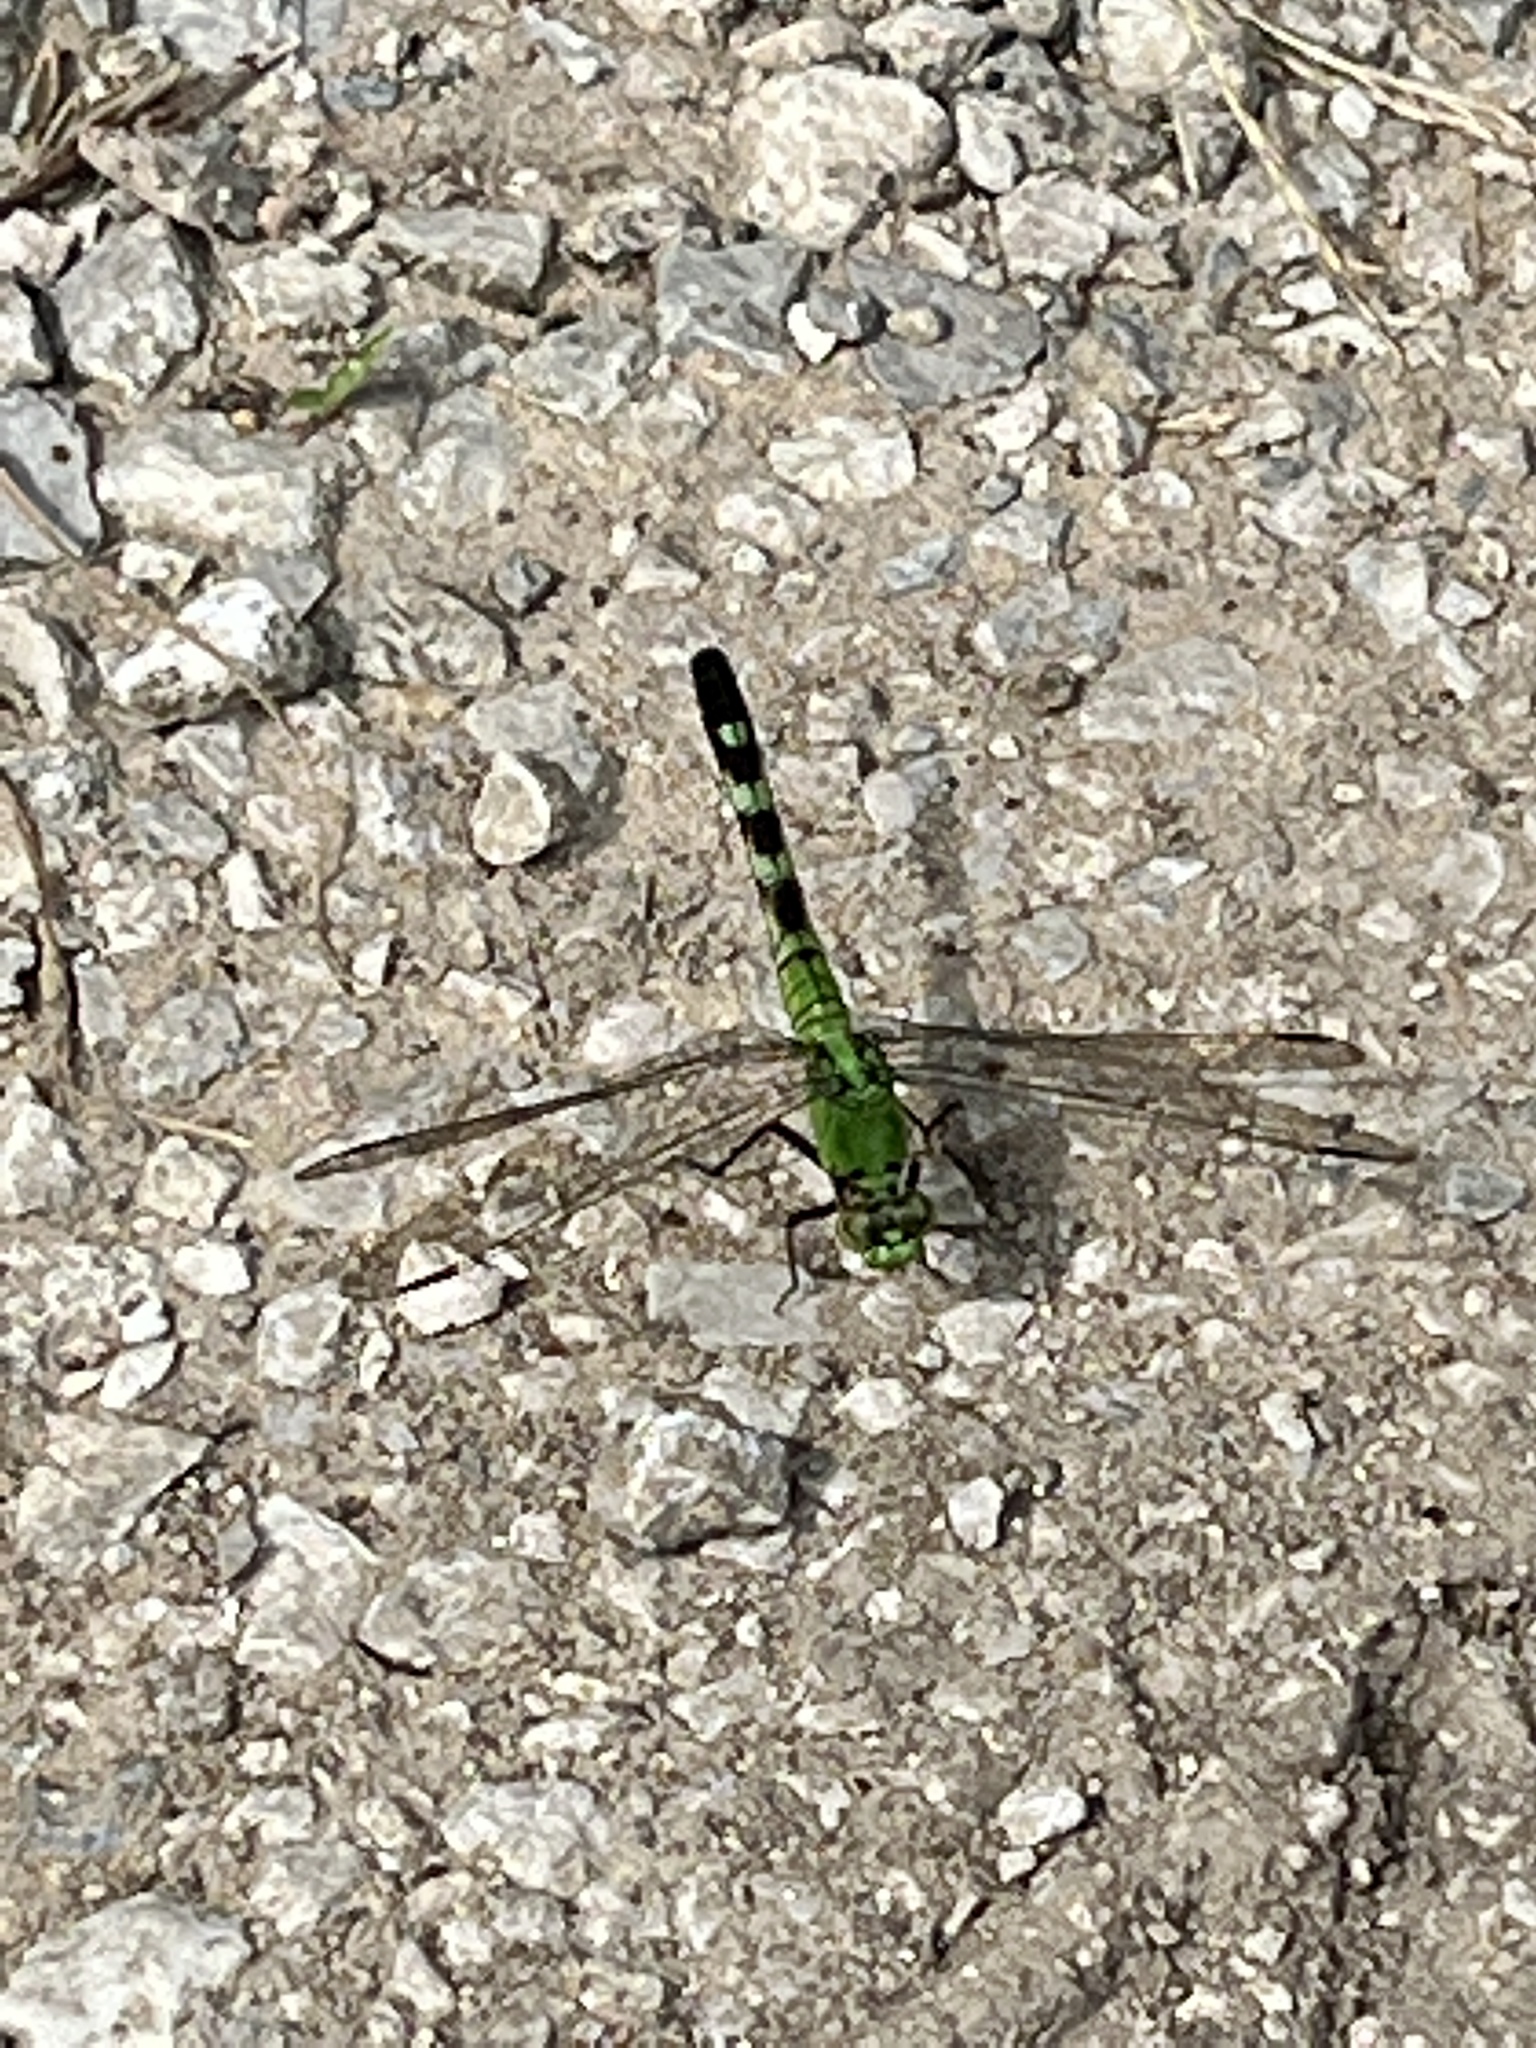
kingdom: Animalia
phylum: Arthropoda
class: Insecta
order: Odonata
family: Libellulidae
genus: Erythemis
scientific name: Erythemis simplicicollis
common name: Eastern pondhawk
